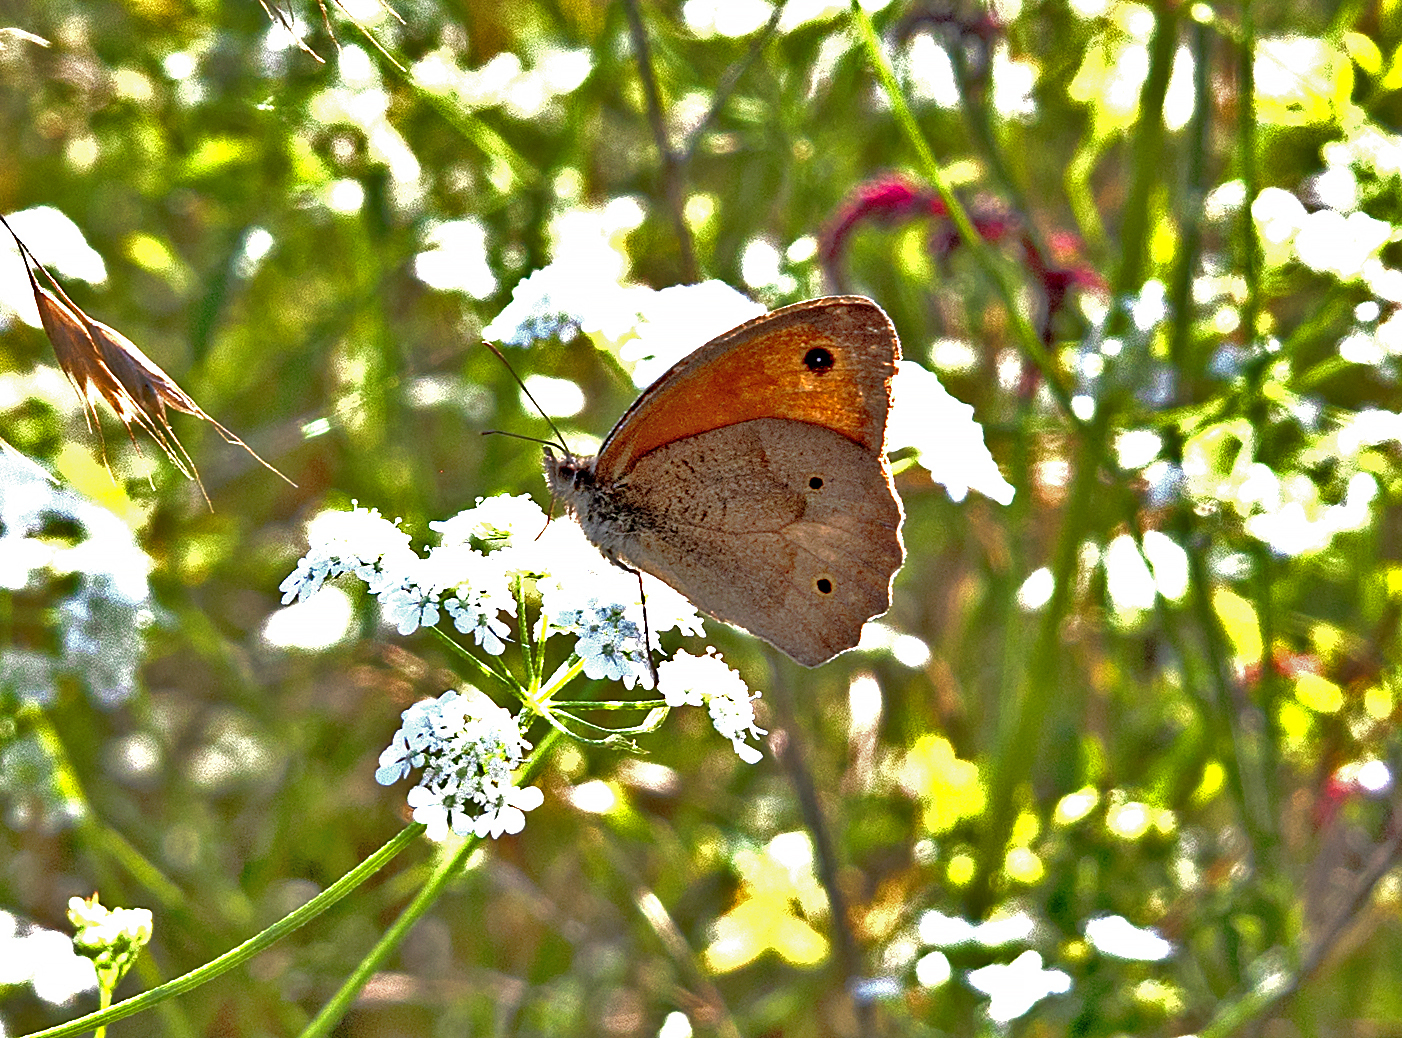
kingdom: Animalia
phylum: Arthropoda
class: Insecta
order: Lepidoptera
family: Nymphalidae
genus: Maniola
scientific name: Maniola jurtina
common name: Meadow brown
